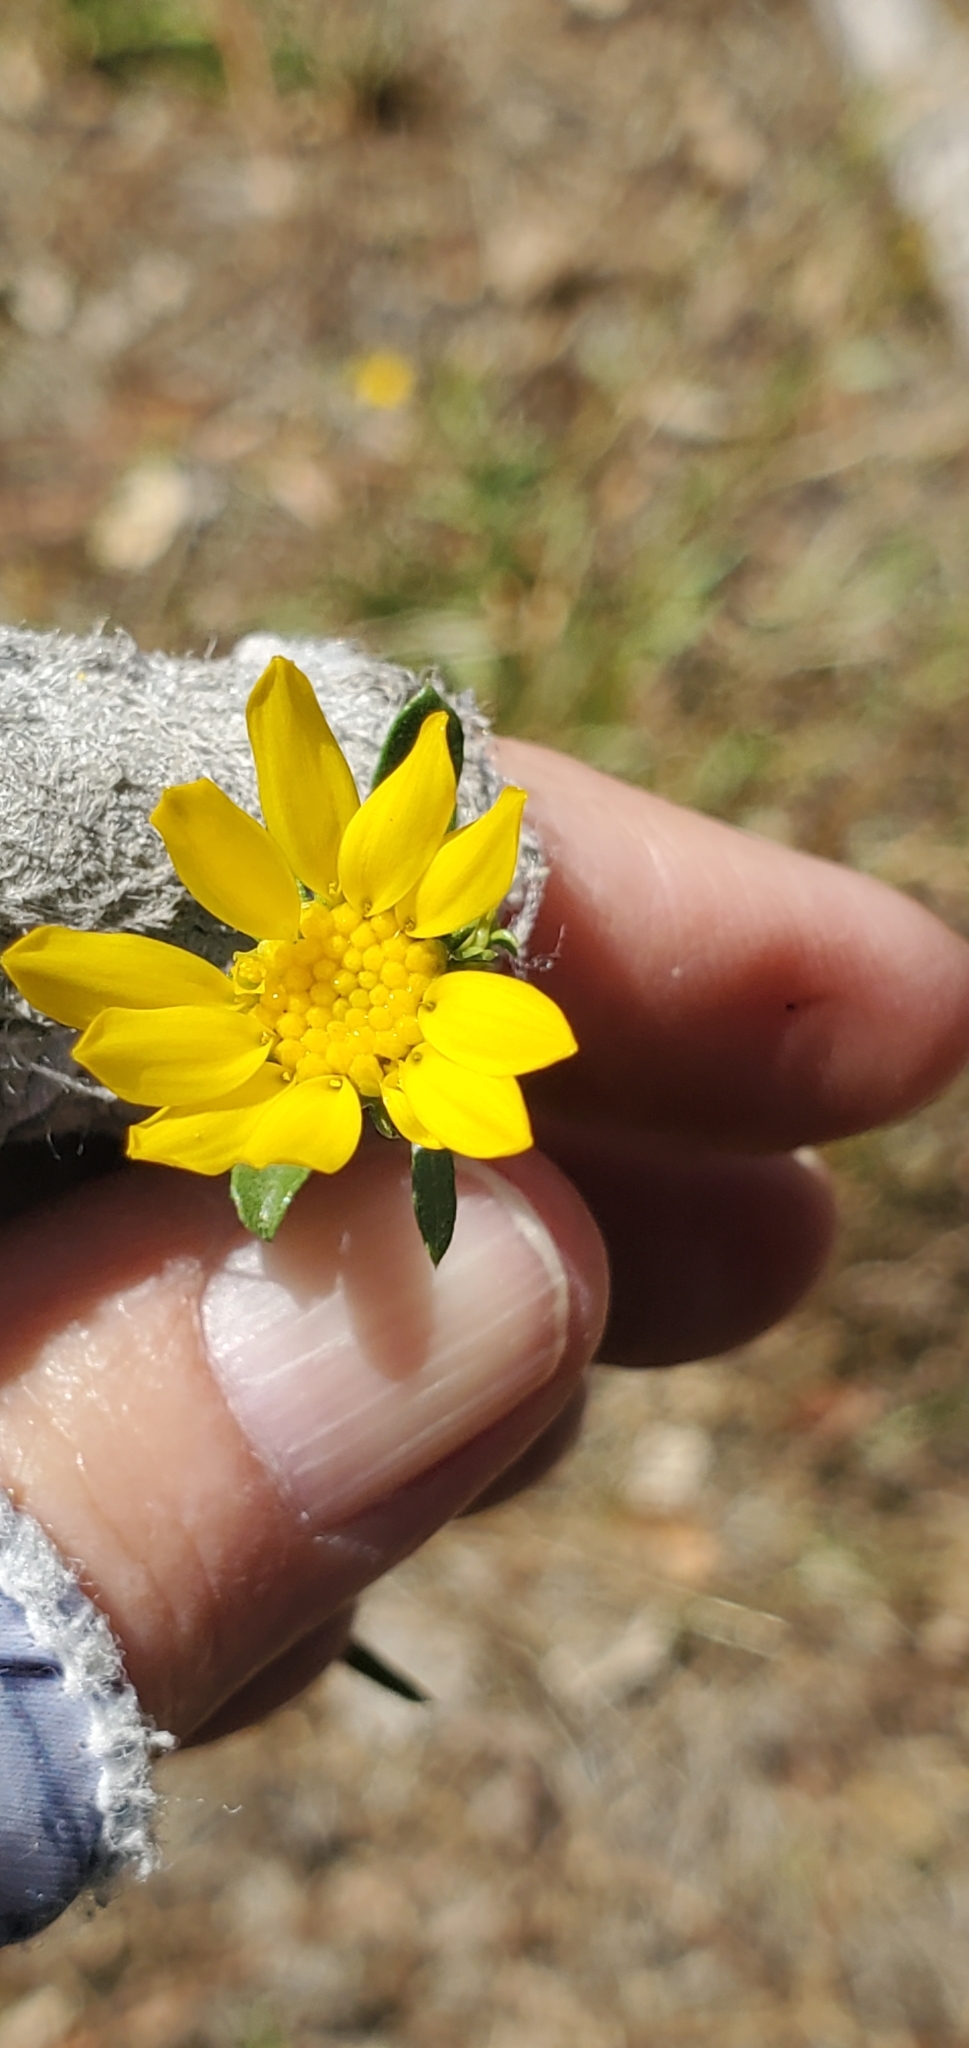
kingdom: Plantae
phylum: Tracheophyta
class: Magnoliopsida
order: Asterales
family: Asteraceae
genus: Grindelia
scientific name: Grindelia hirsutula
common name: Hairy gumweed
